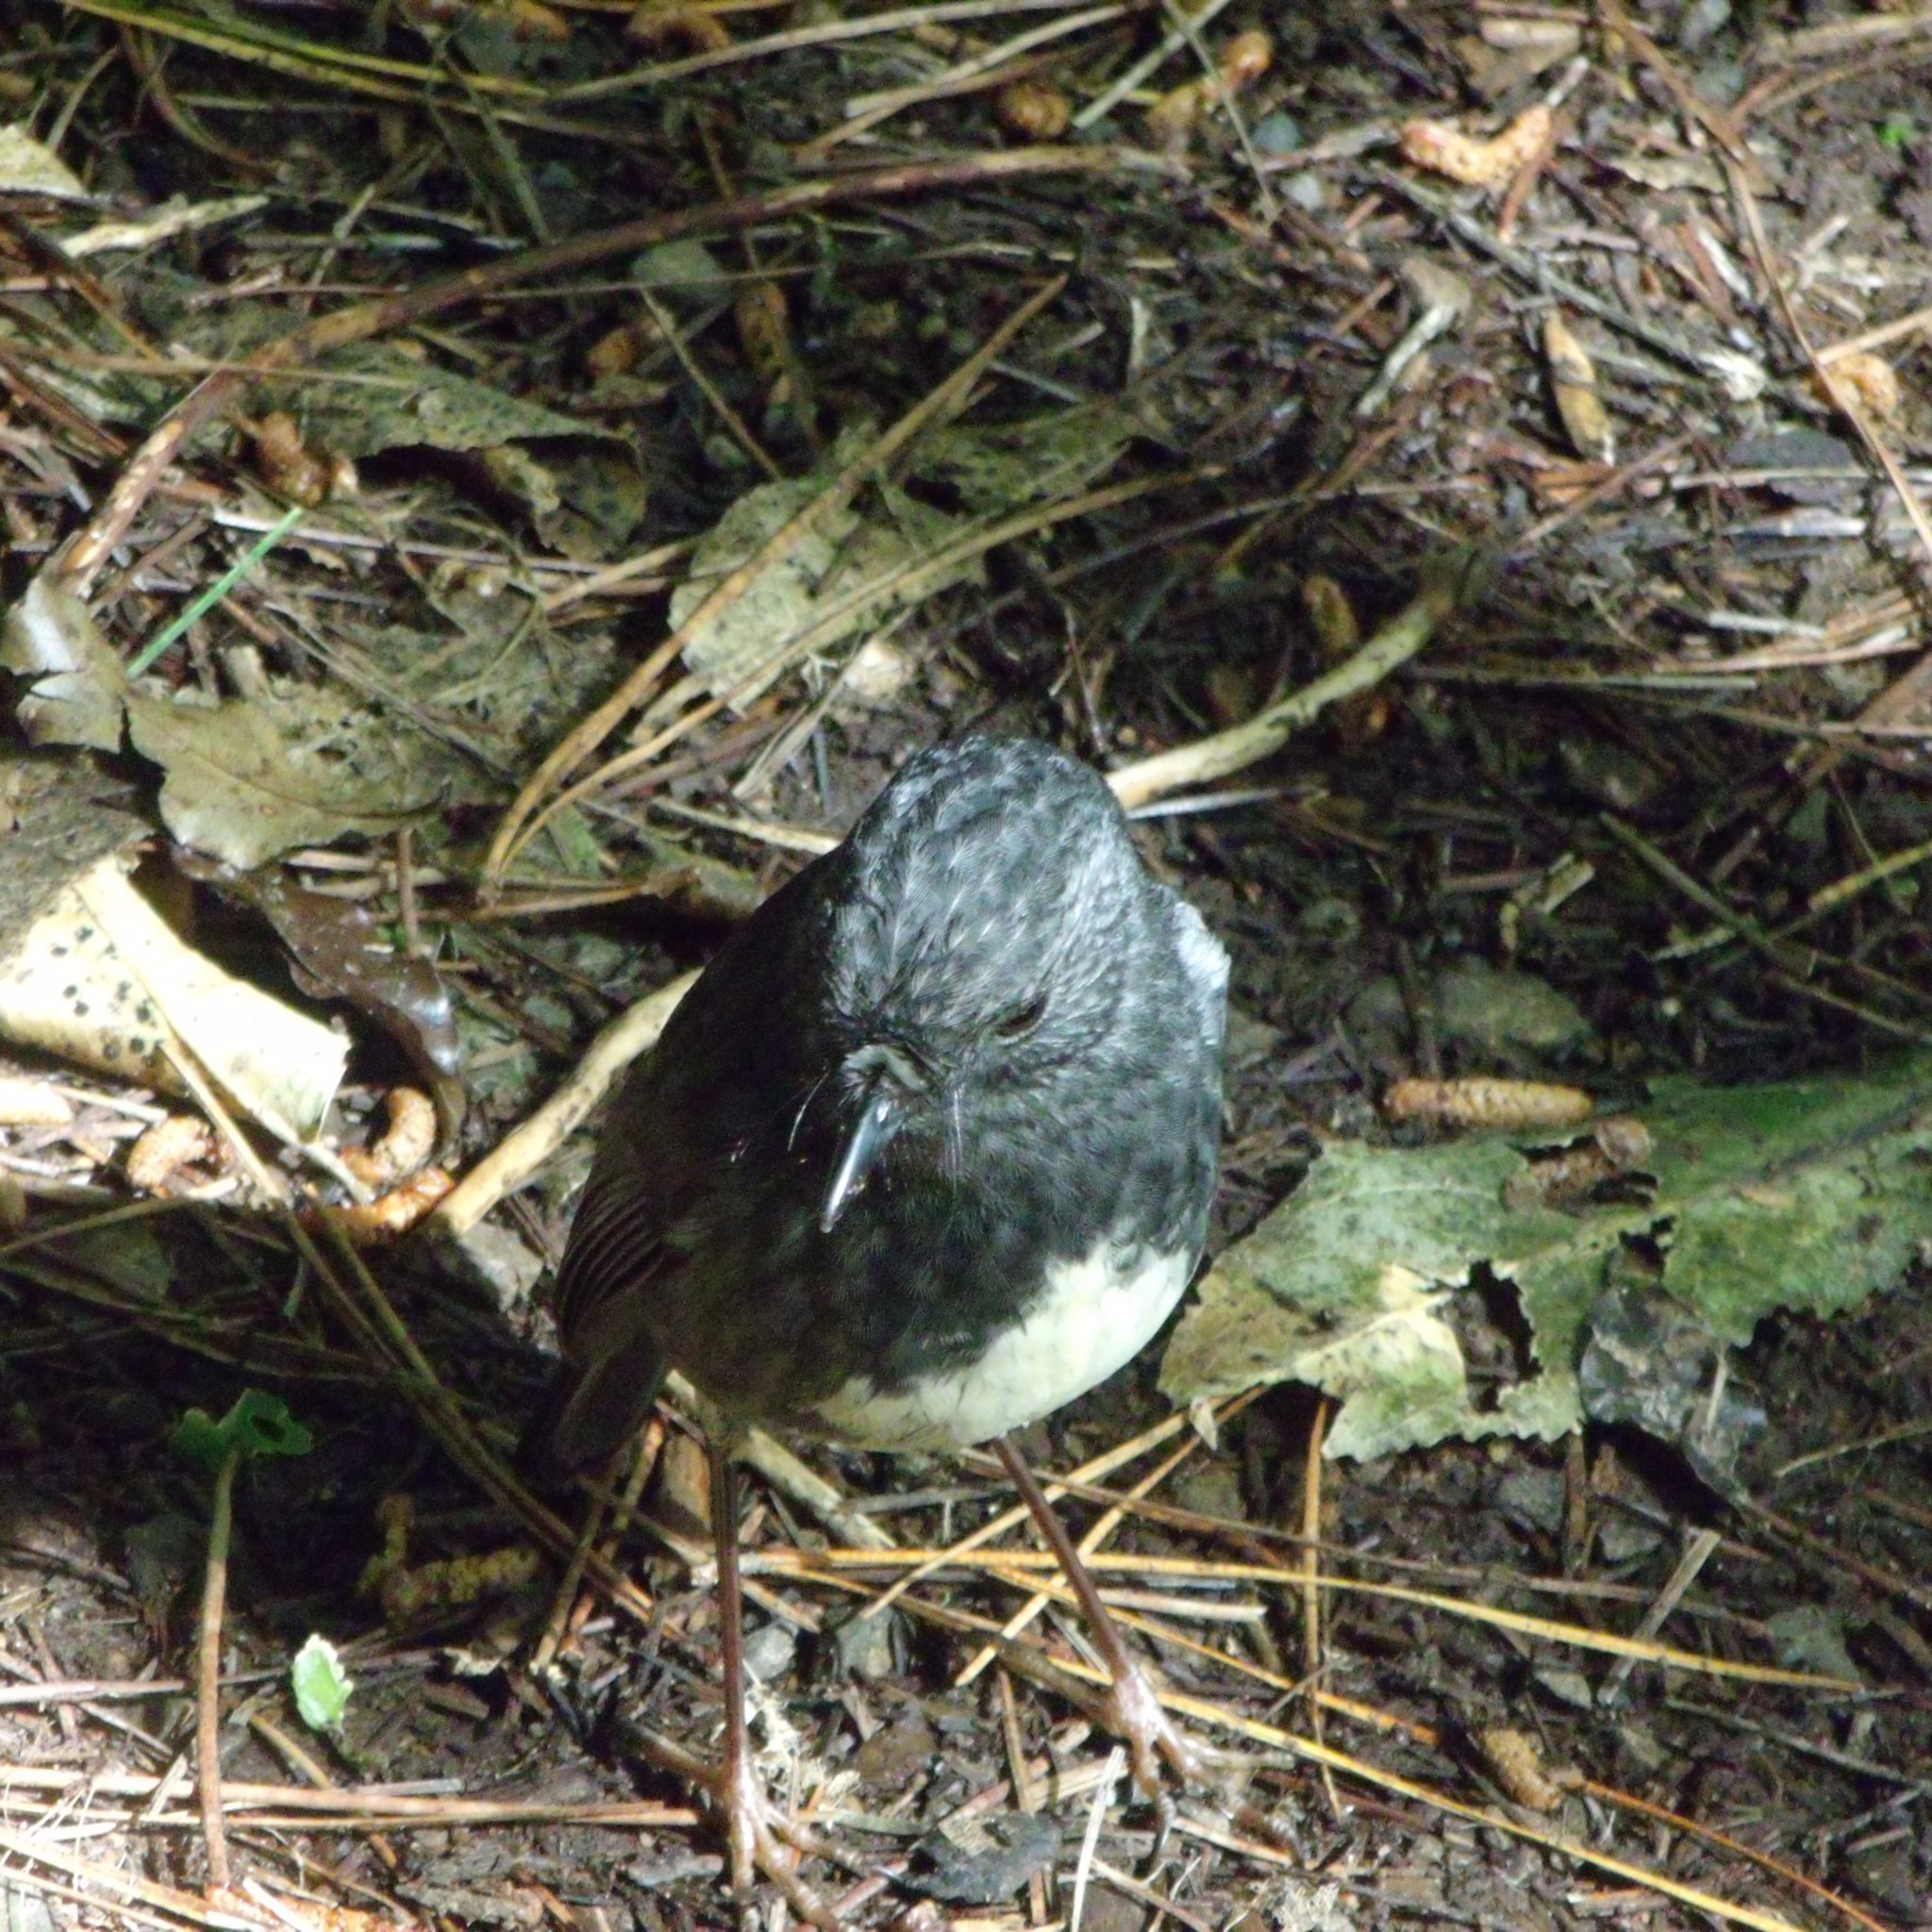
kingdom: Animalia
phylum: Chordata
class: Aves
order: Passeriformes
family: Petroicidae
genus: Petroica
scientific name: Petroica australis
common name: New zealand robin
